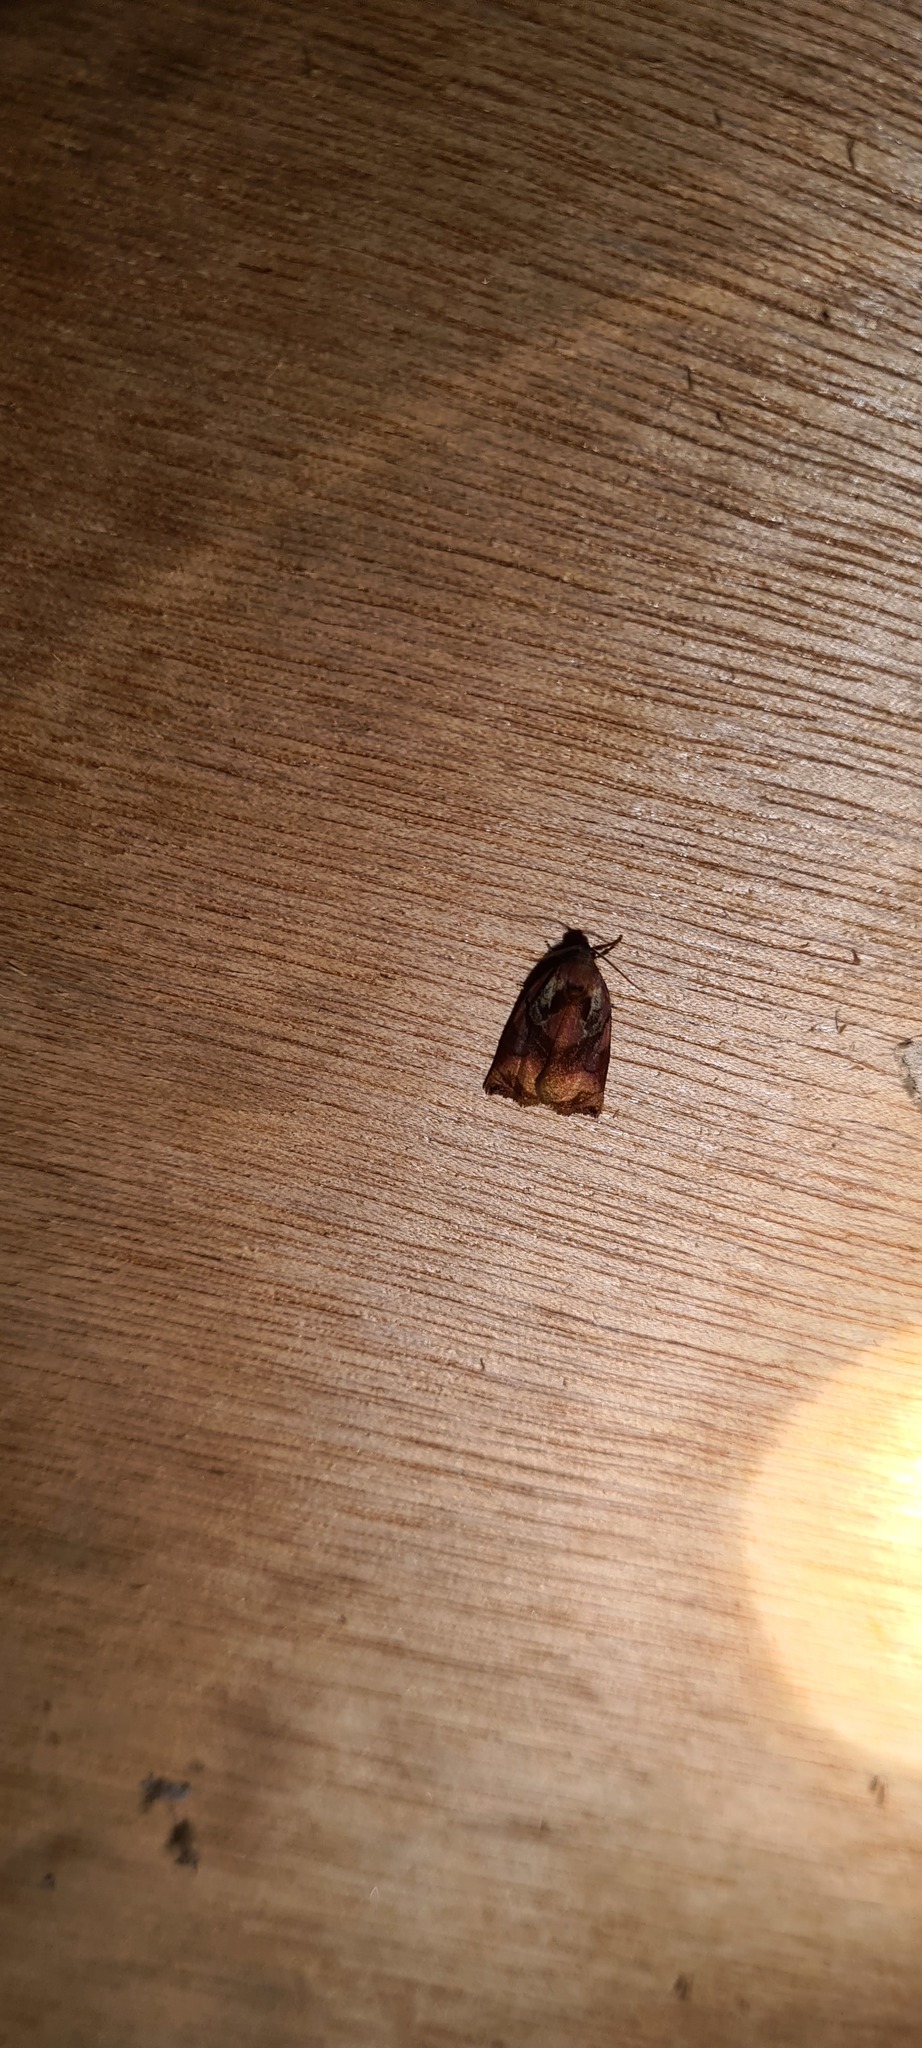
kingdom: Animalia
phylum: Arthropoda
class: Insecta
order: Lepidoptera
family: Tortricidae
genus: Archips
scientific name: Archips podana
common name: Large fruit-tree tortrix
